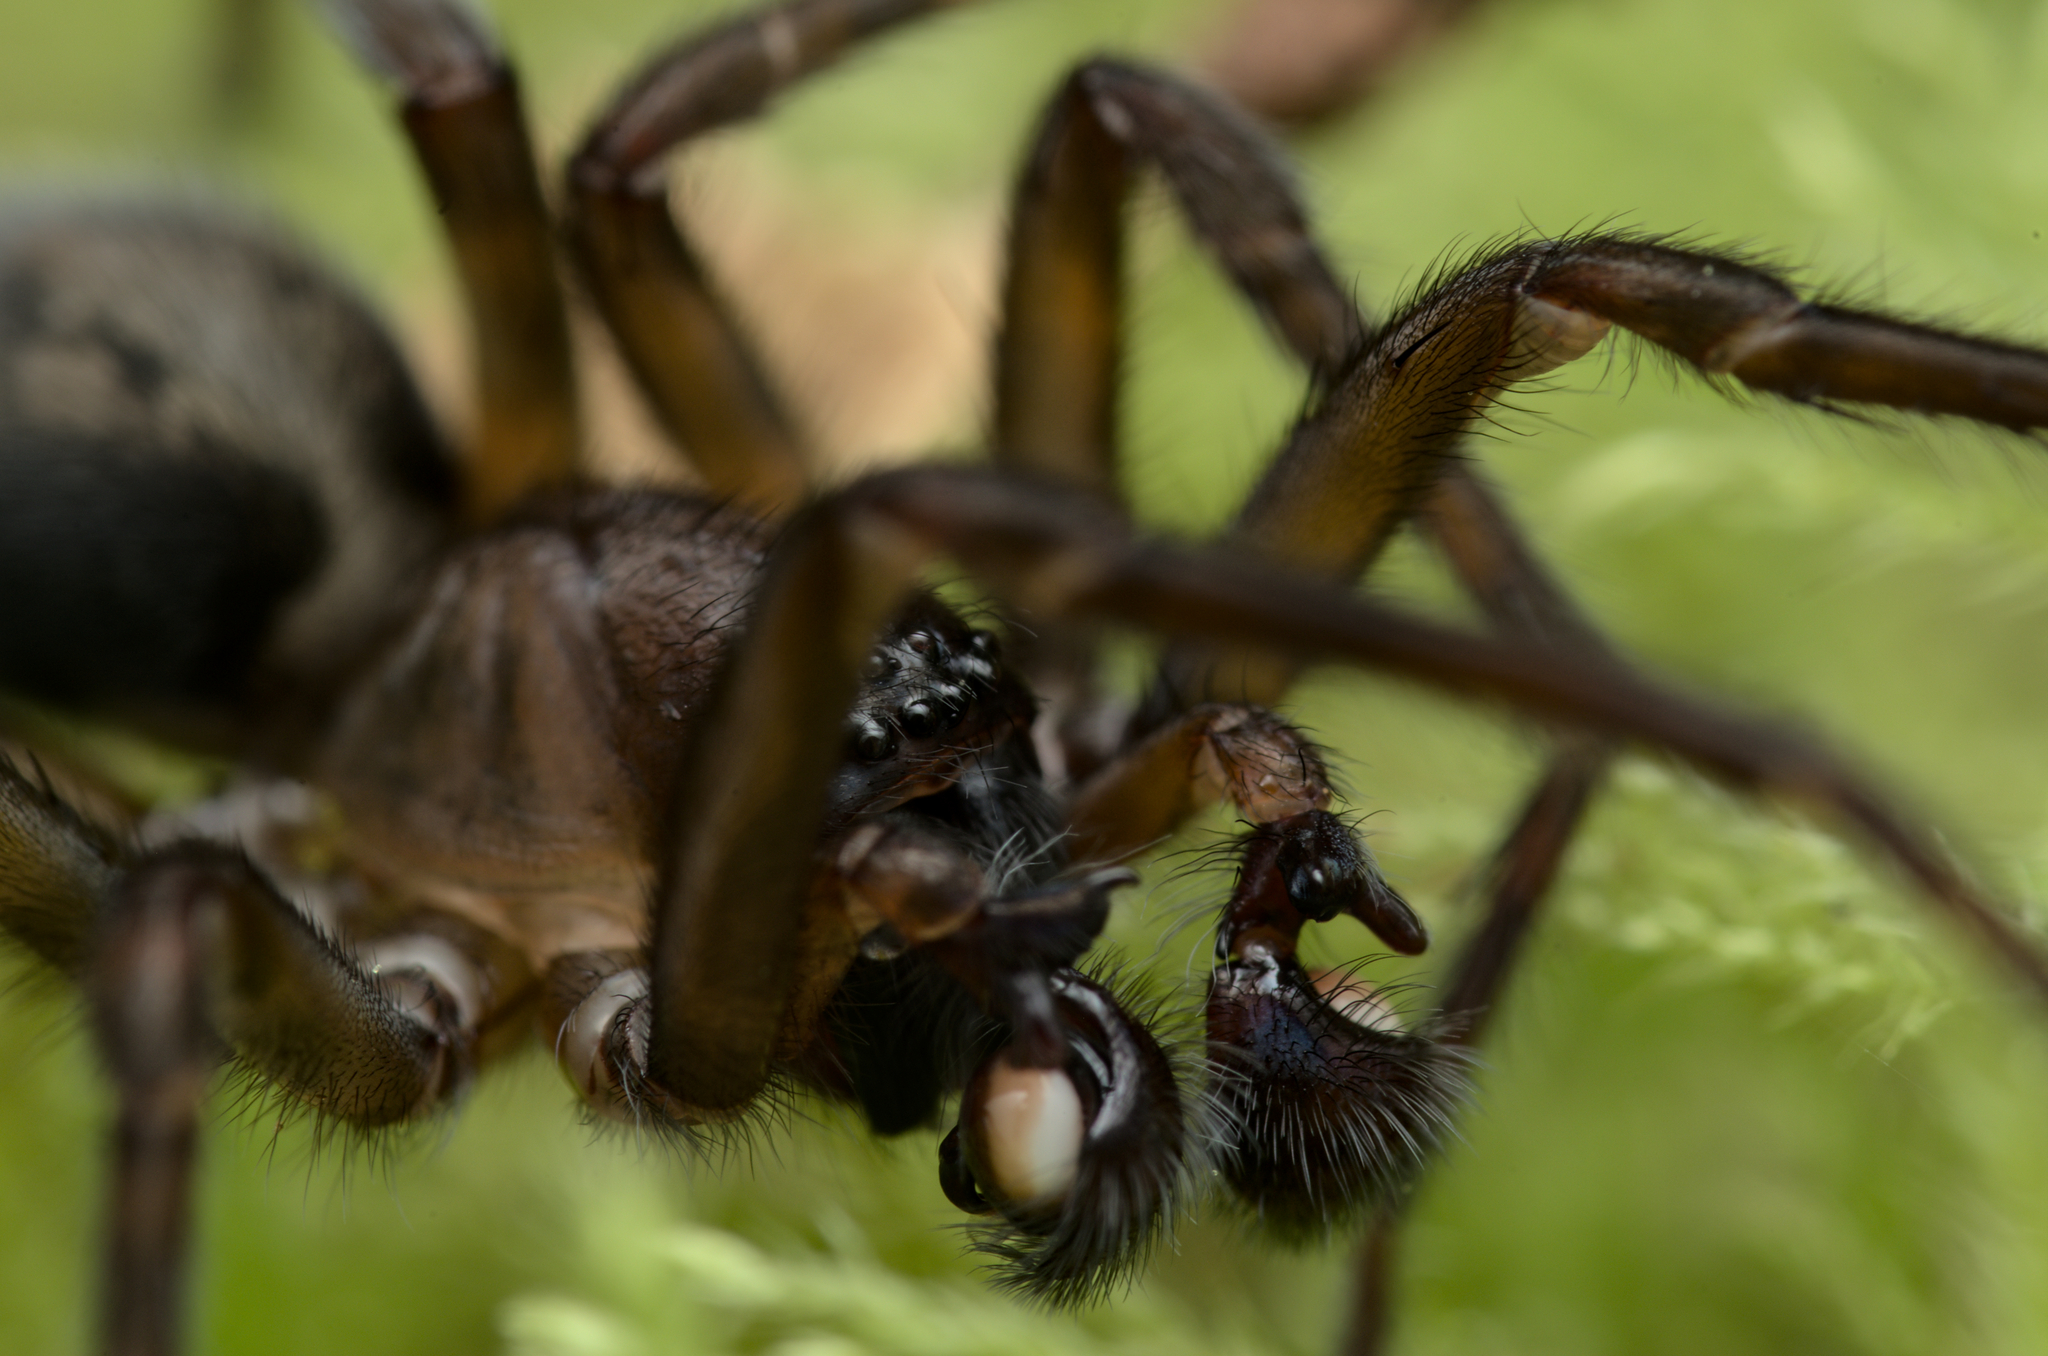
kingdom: Animalia
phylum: Arthropoda
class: Arachnida
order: Araneae
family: Amaurobiidae
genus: Amaurobius
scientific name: Amaurobius ferox
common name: Black laceweaver
